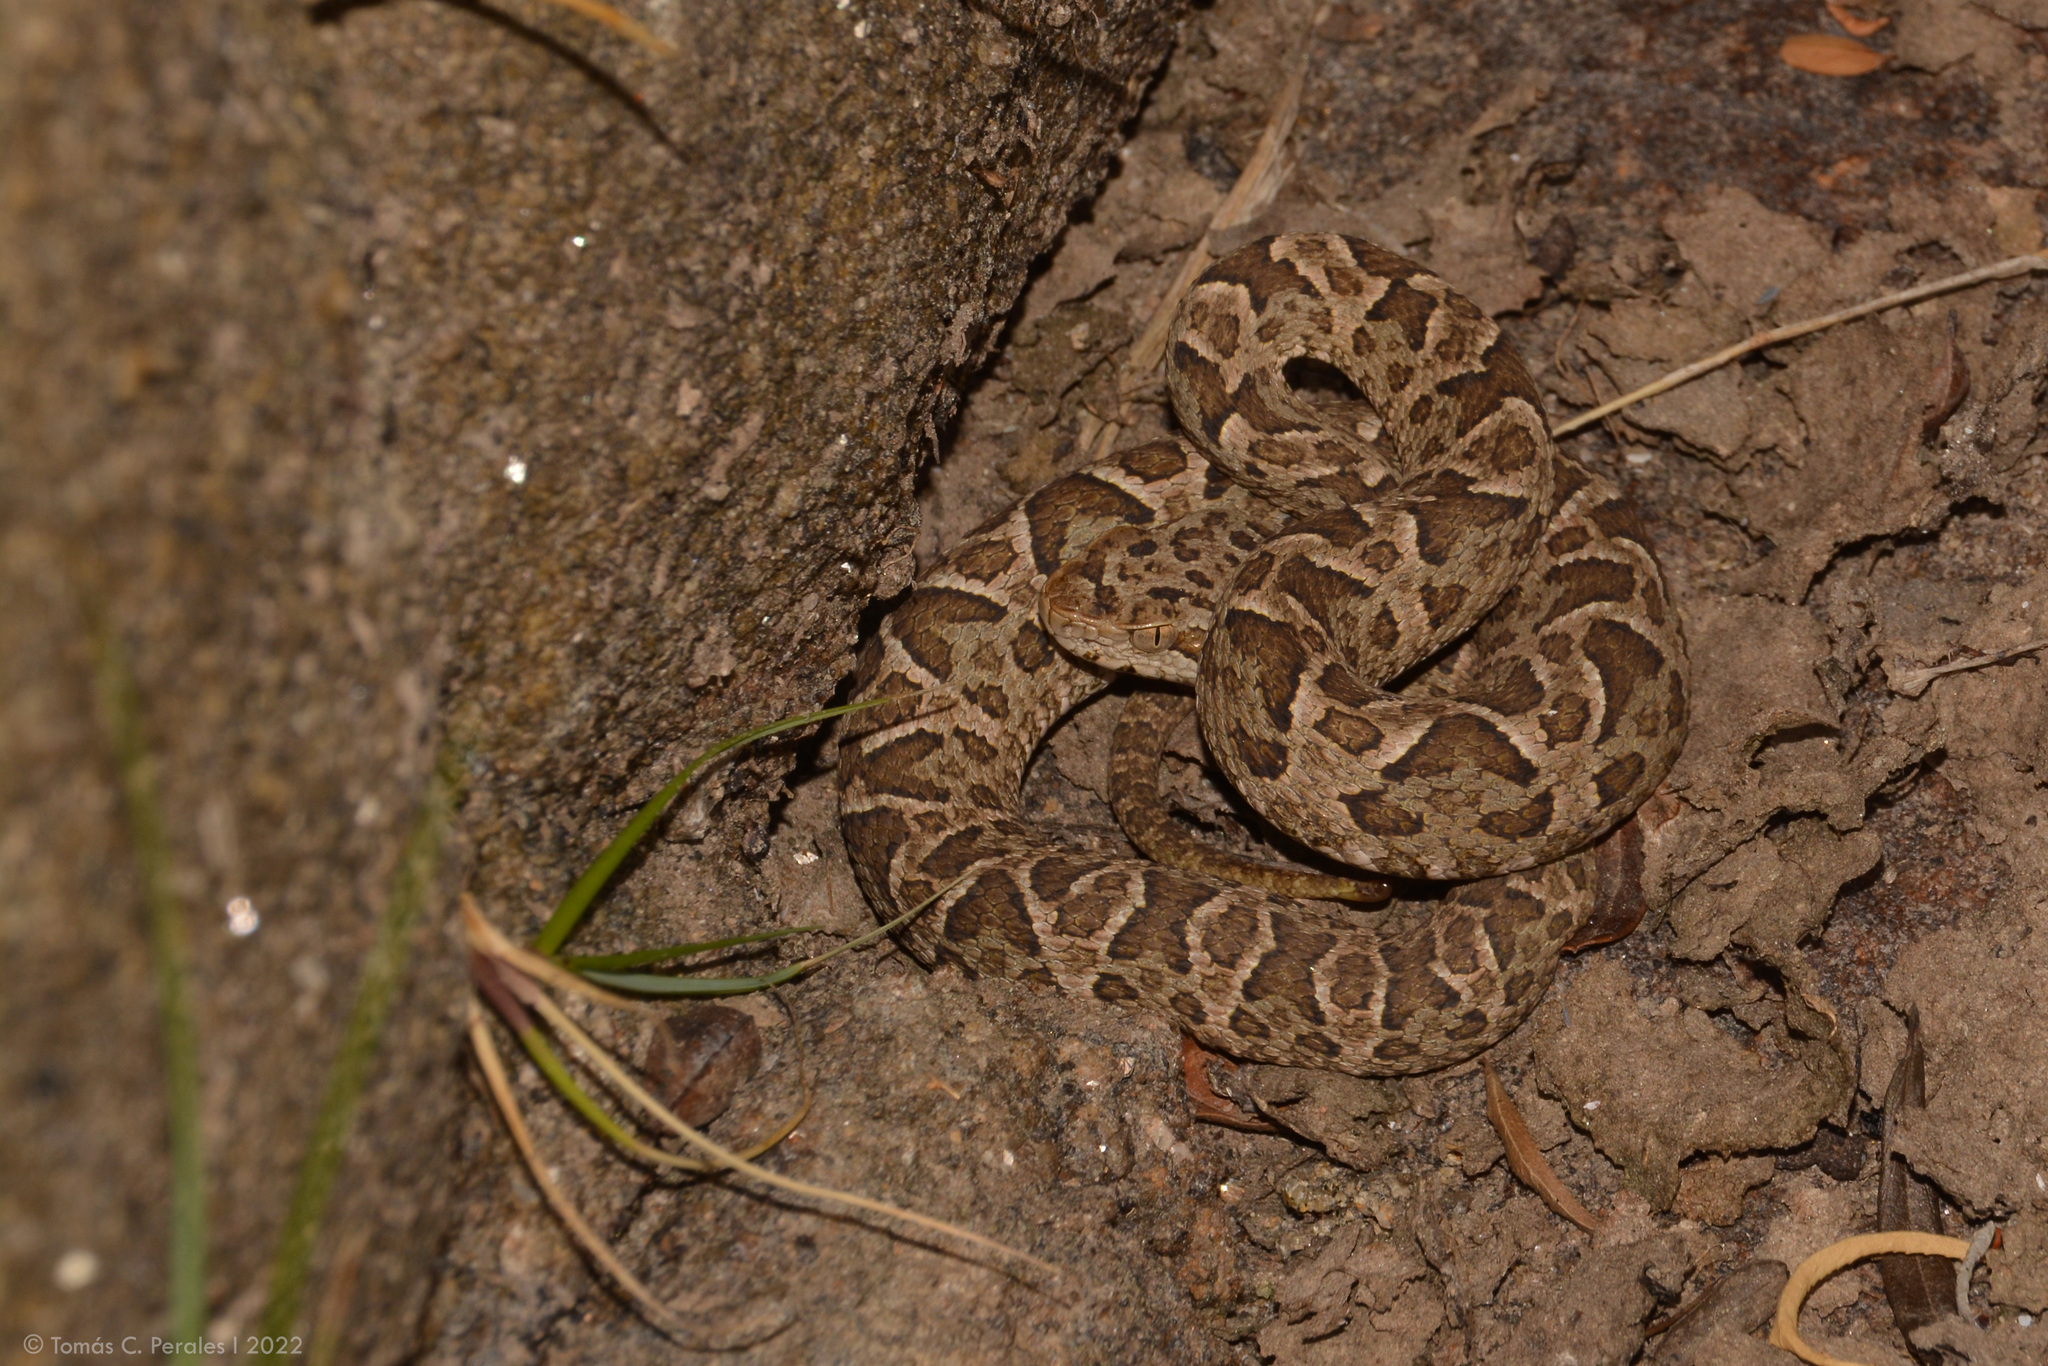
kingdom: Animalia
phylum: Chordata
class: Squamata
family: Viperidae
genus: Bothrops
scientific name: Bothrops diporus
